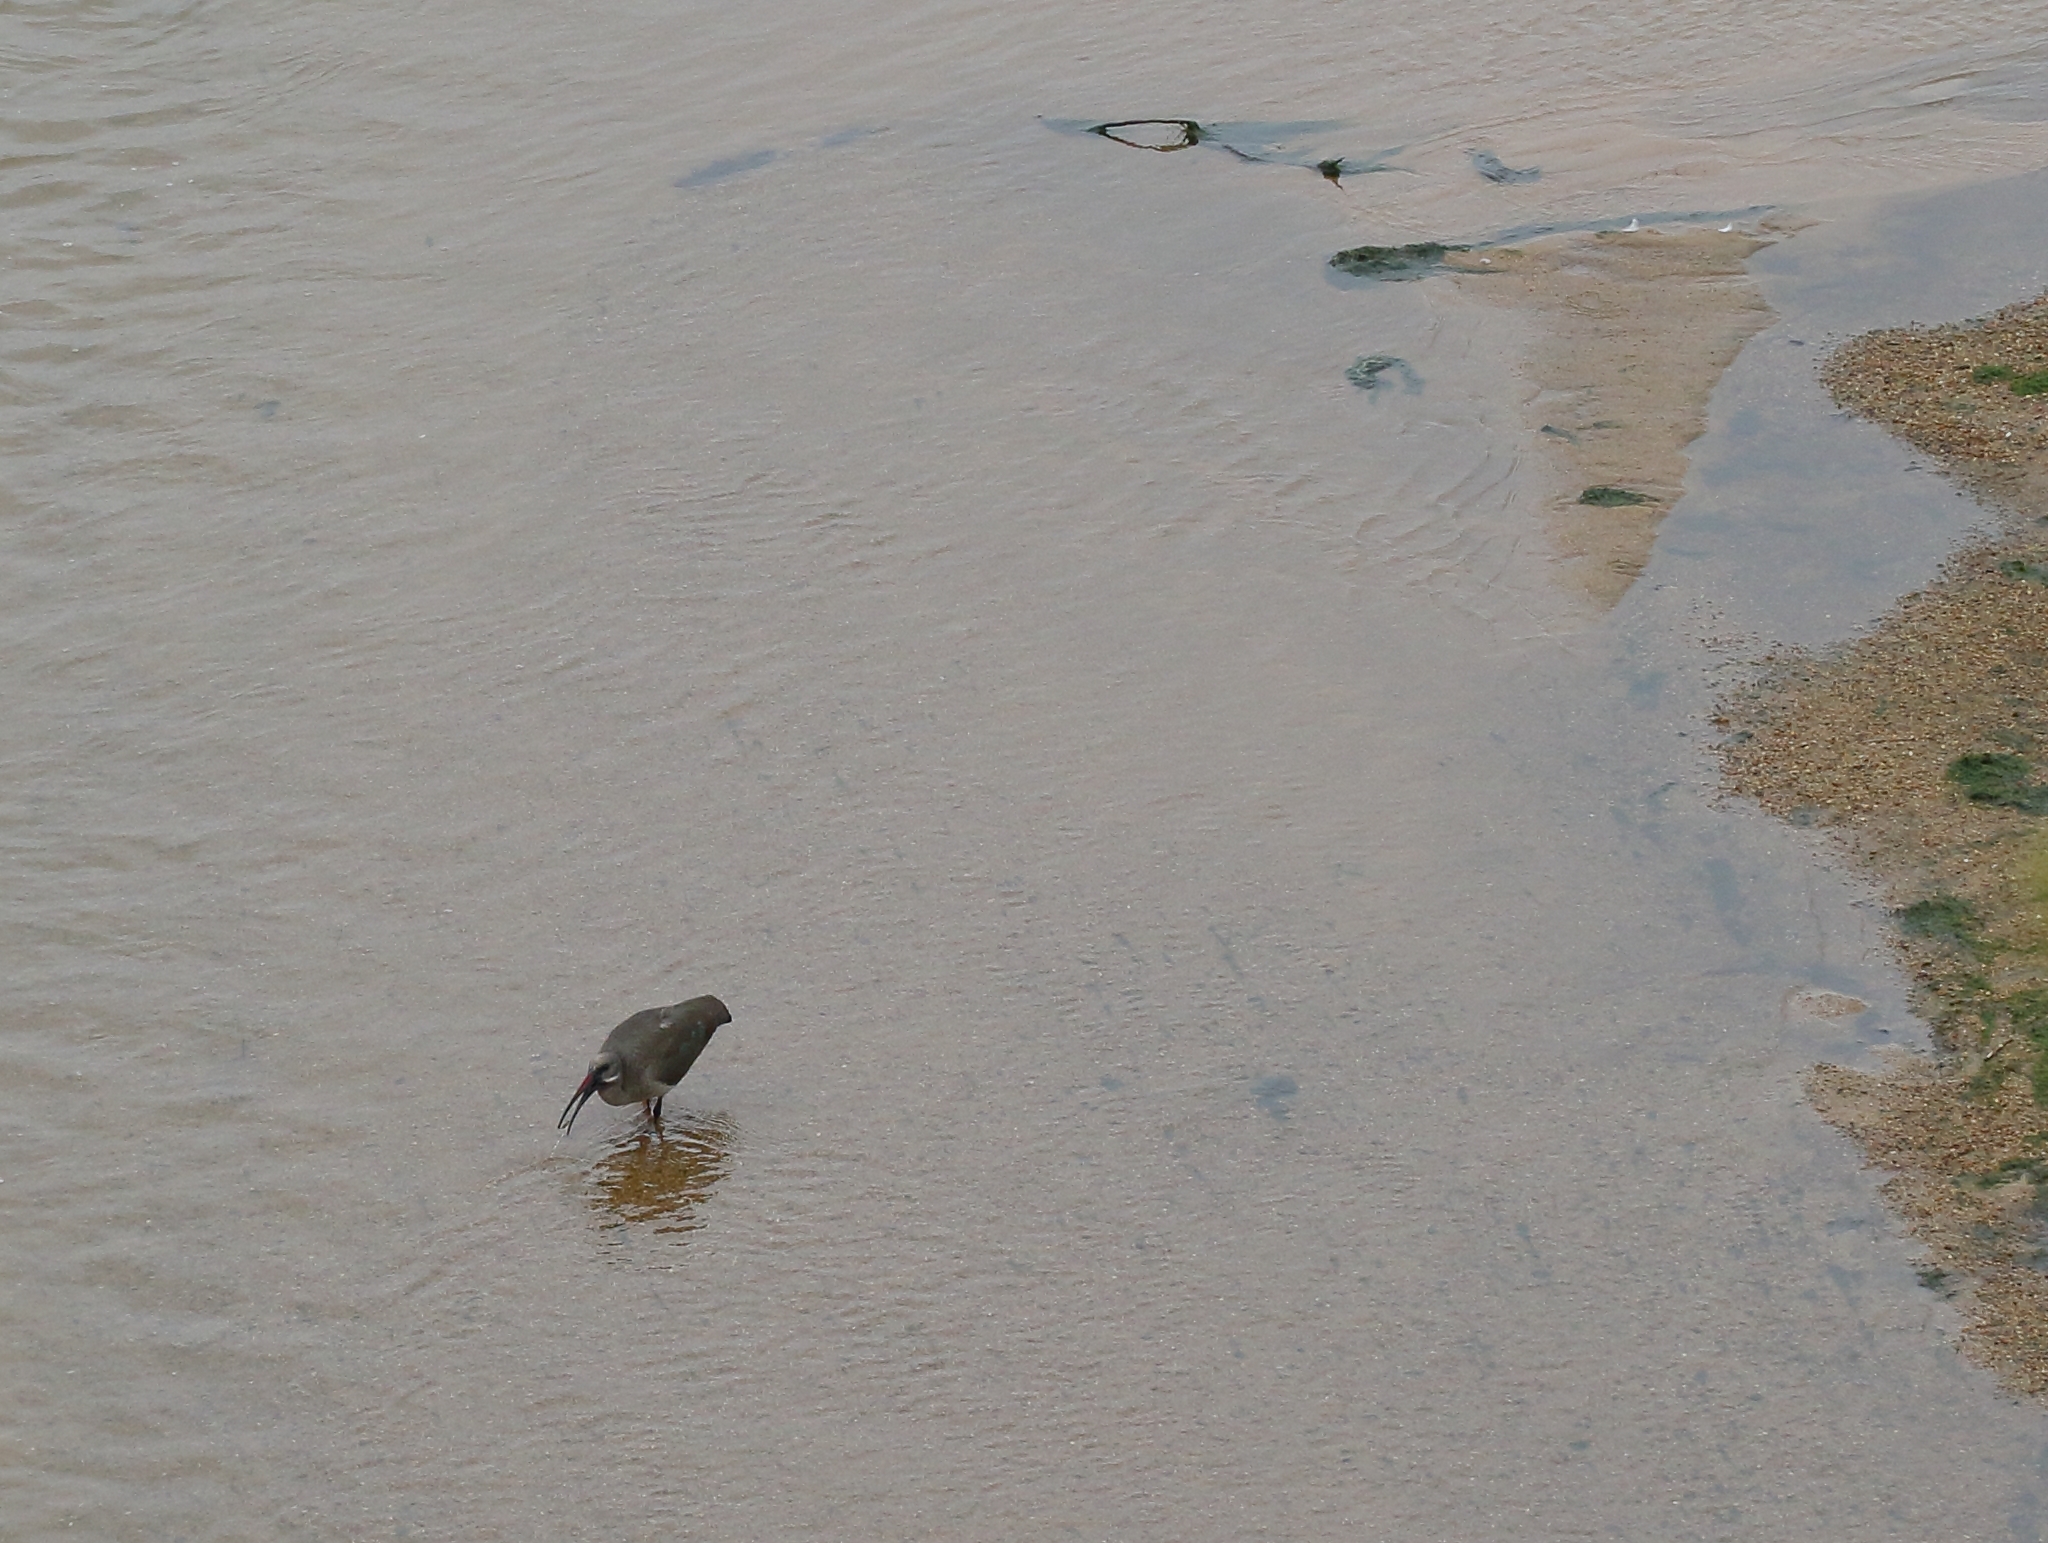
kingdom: Animalia
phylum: Chordata
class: Aves
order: Pelecaniformes
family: Threskiornithidae
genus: Bostrychia
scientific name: Bostrychia hagedash
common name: Hadada ibis
